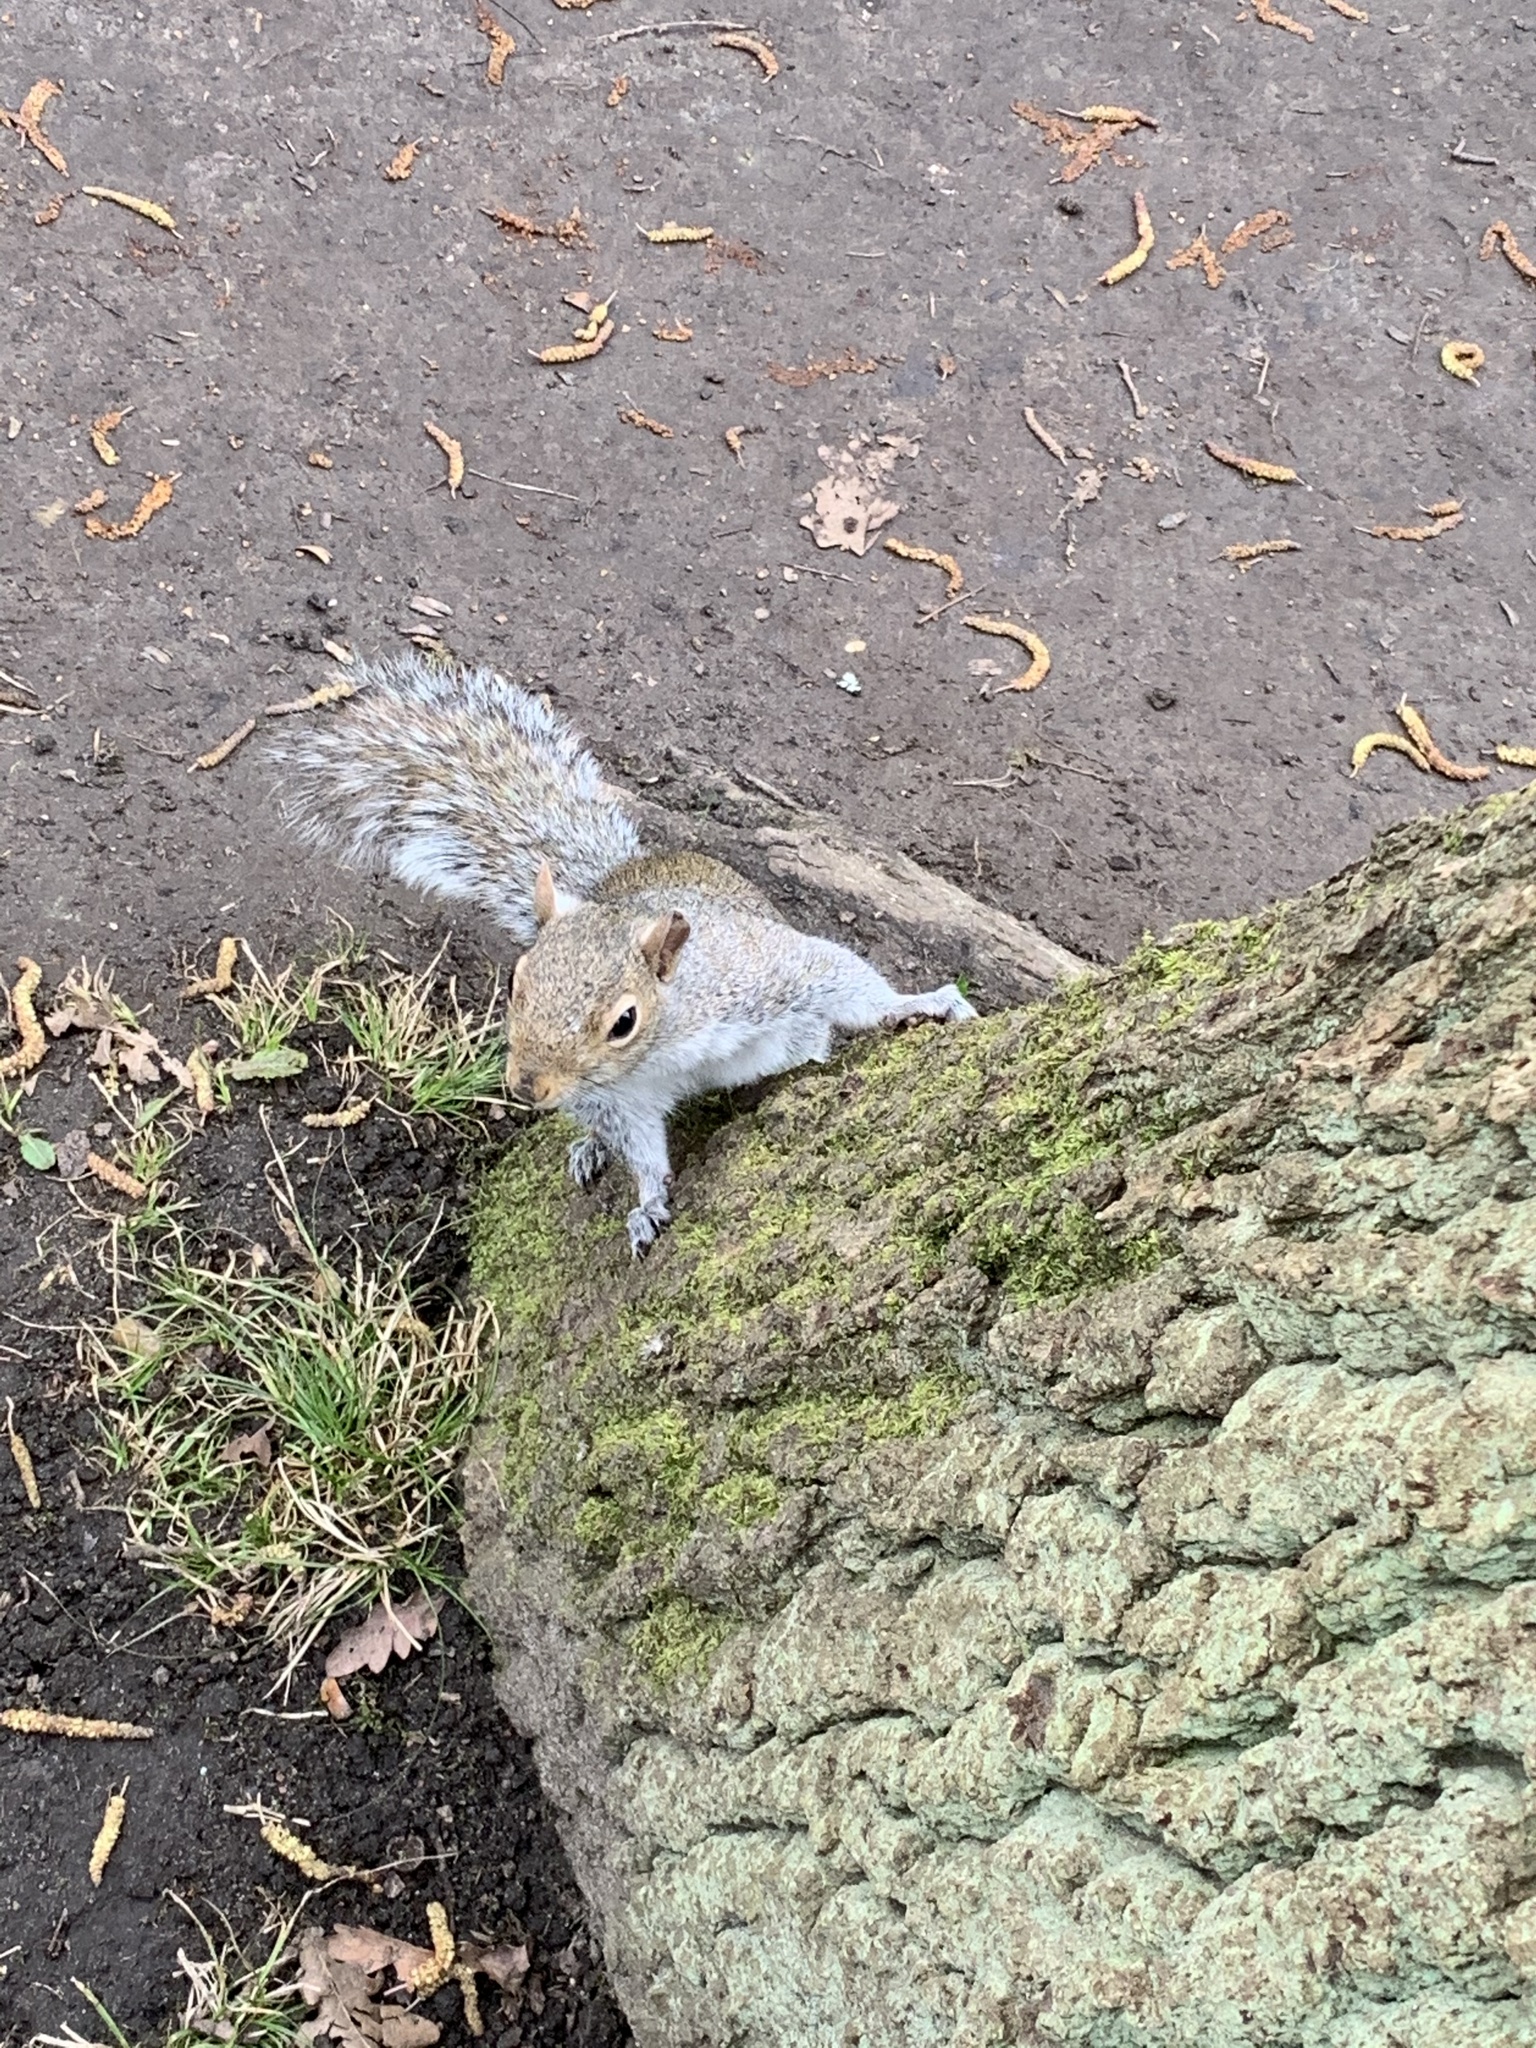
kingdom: Animalia
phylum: Chordata
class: Mammalia
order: Rodentia
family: Sciuridae
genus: Sciurus
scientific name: Sciurus carolinensis
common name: Eastern gray squirrel
